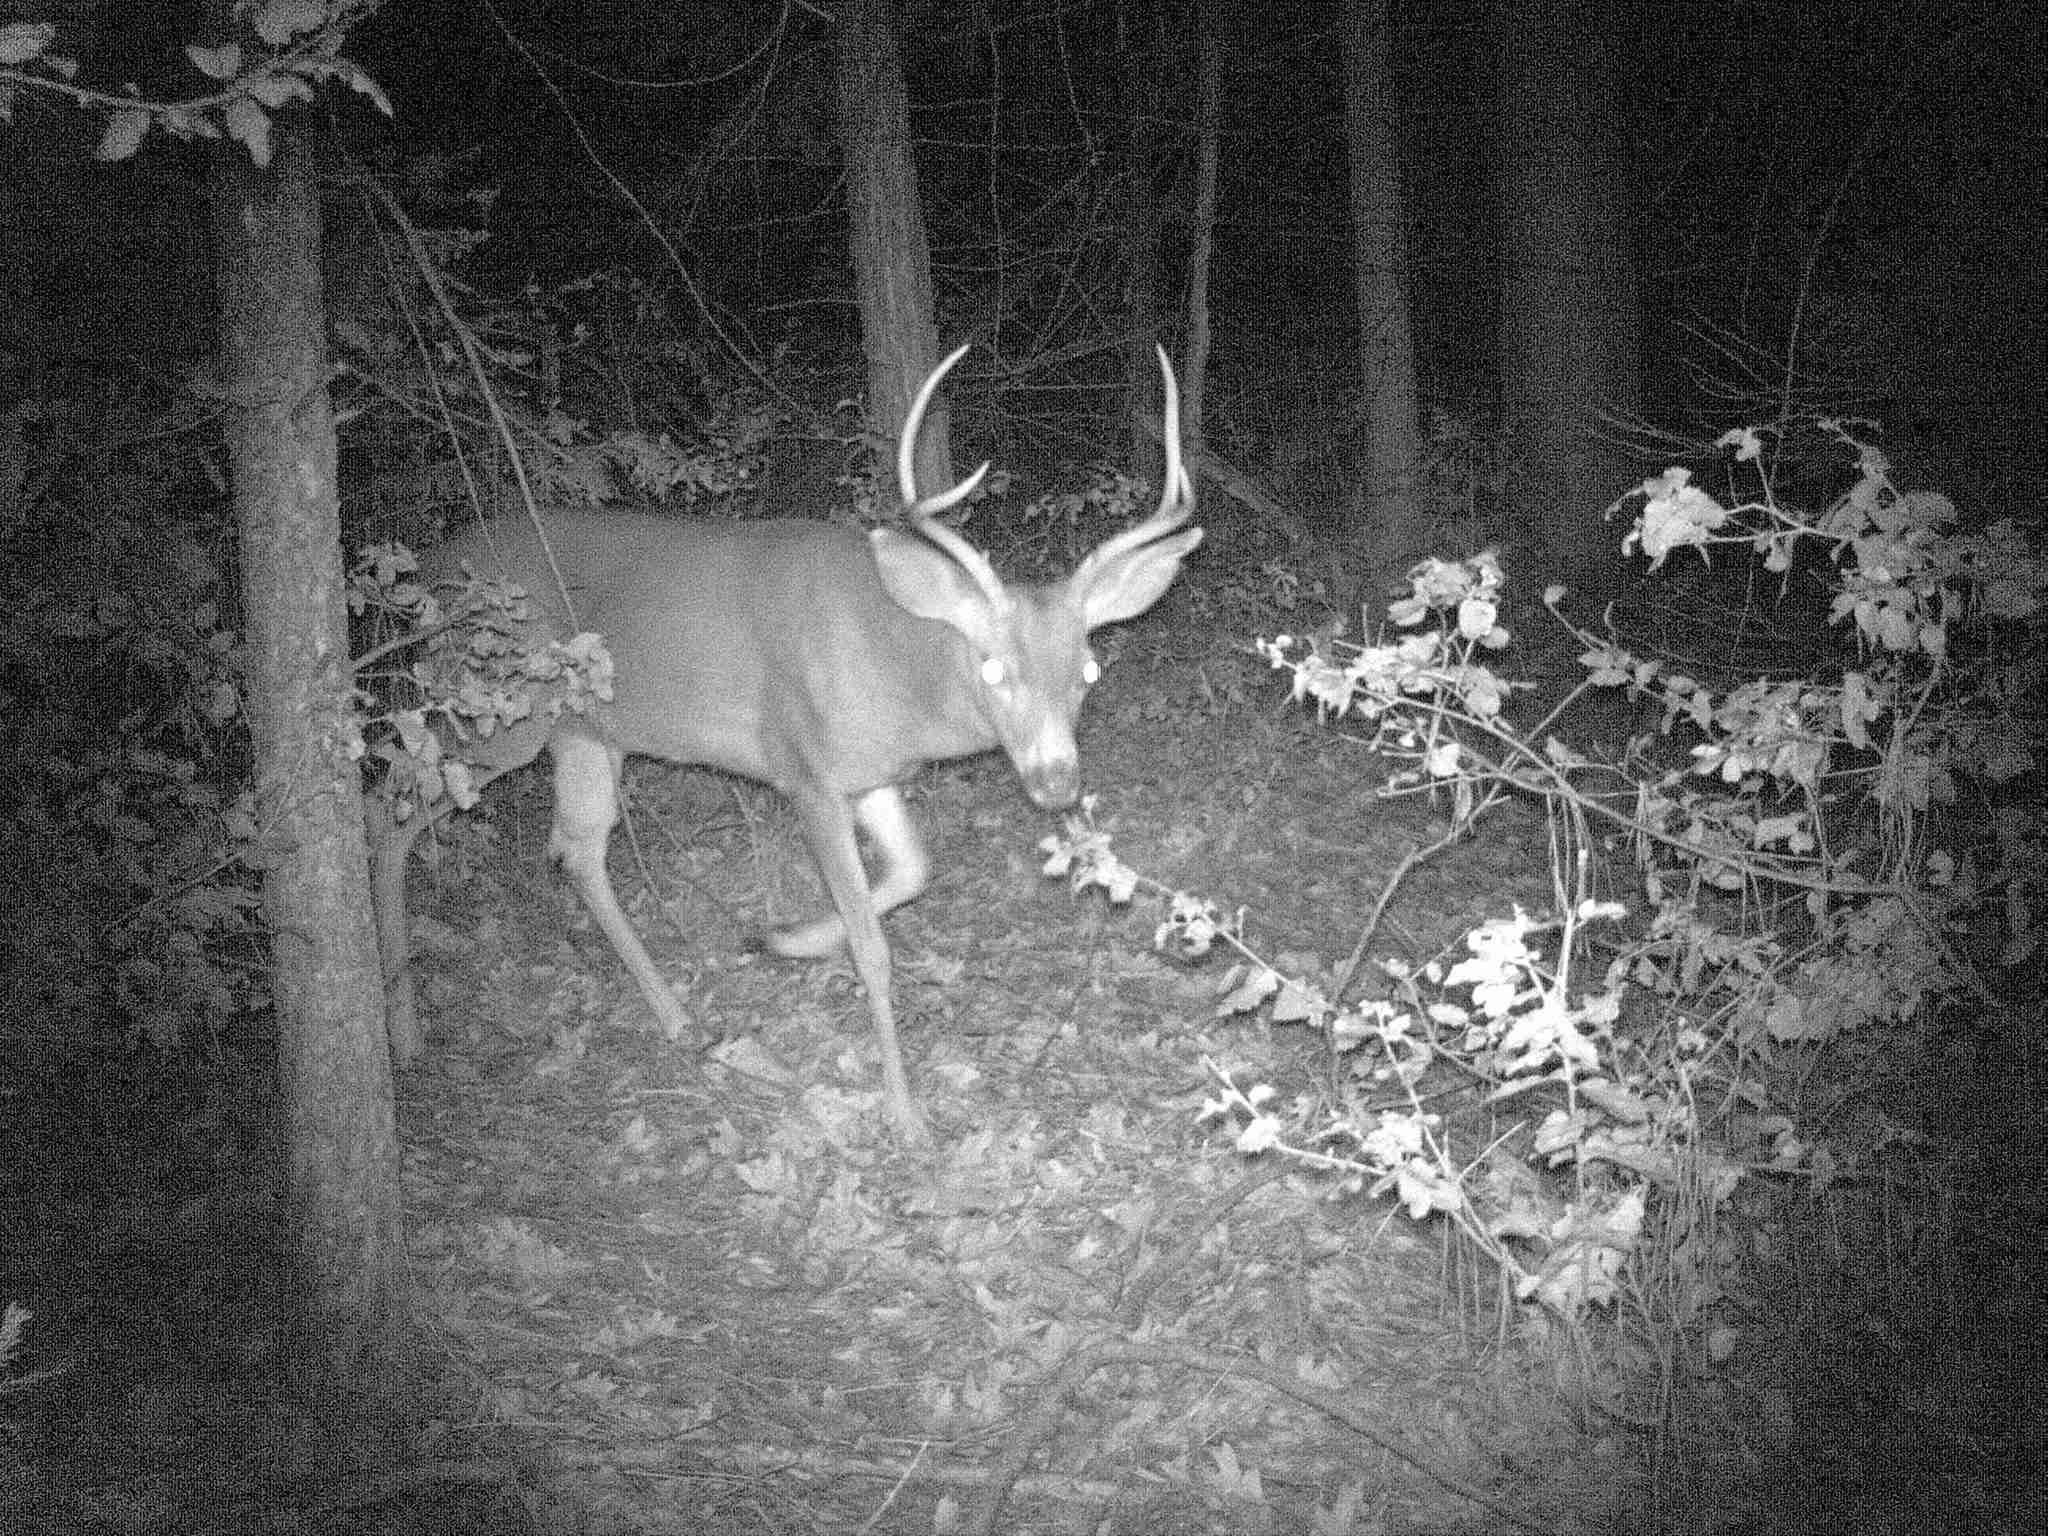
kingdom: Animalia
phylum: Chordata
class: Mammalia
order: Artiodactyla
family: Cervidae
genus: Odocoileus
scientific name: Odocoileus hemionus
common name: Mule deer
